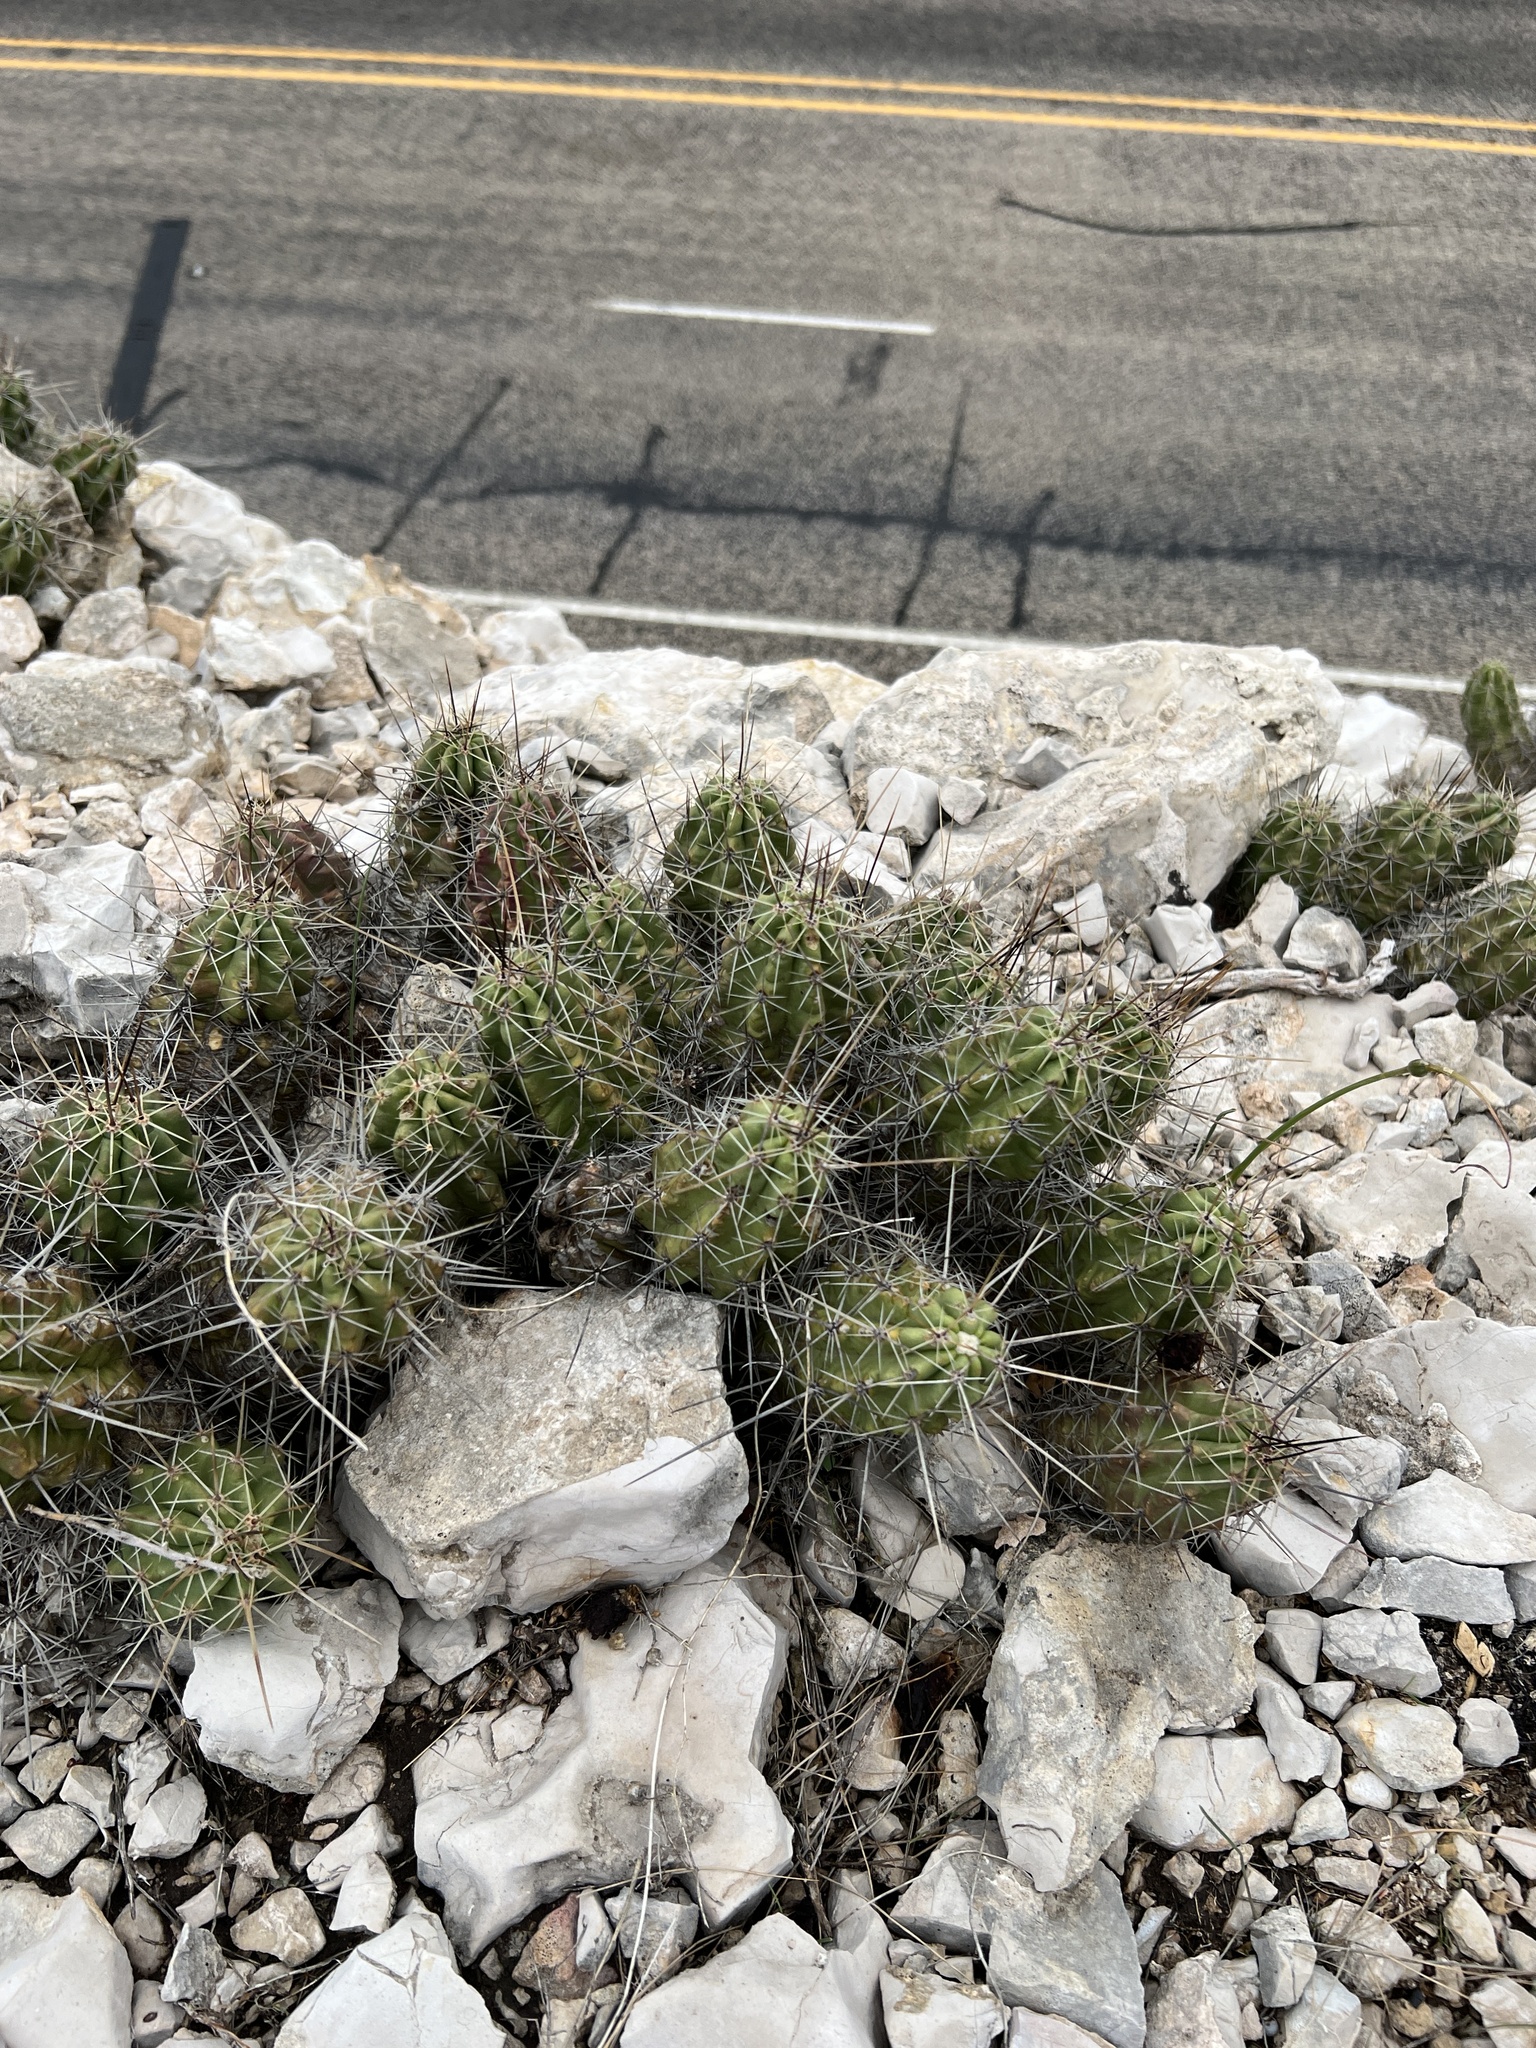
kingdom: Plantae
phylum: Tracheophyta
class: Magnoliopsida
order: Caryophyllales
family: Cactaceae
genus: Echinocereus
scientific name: Echinocereus enneacanthus
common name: Pitaya
